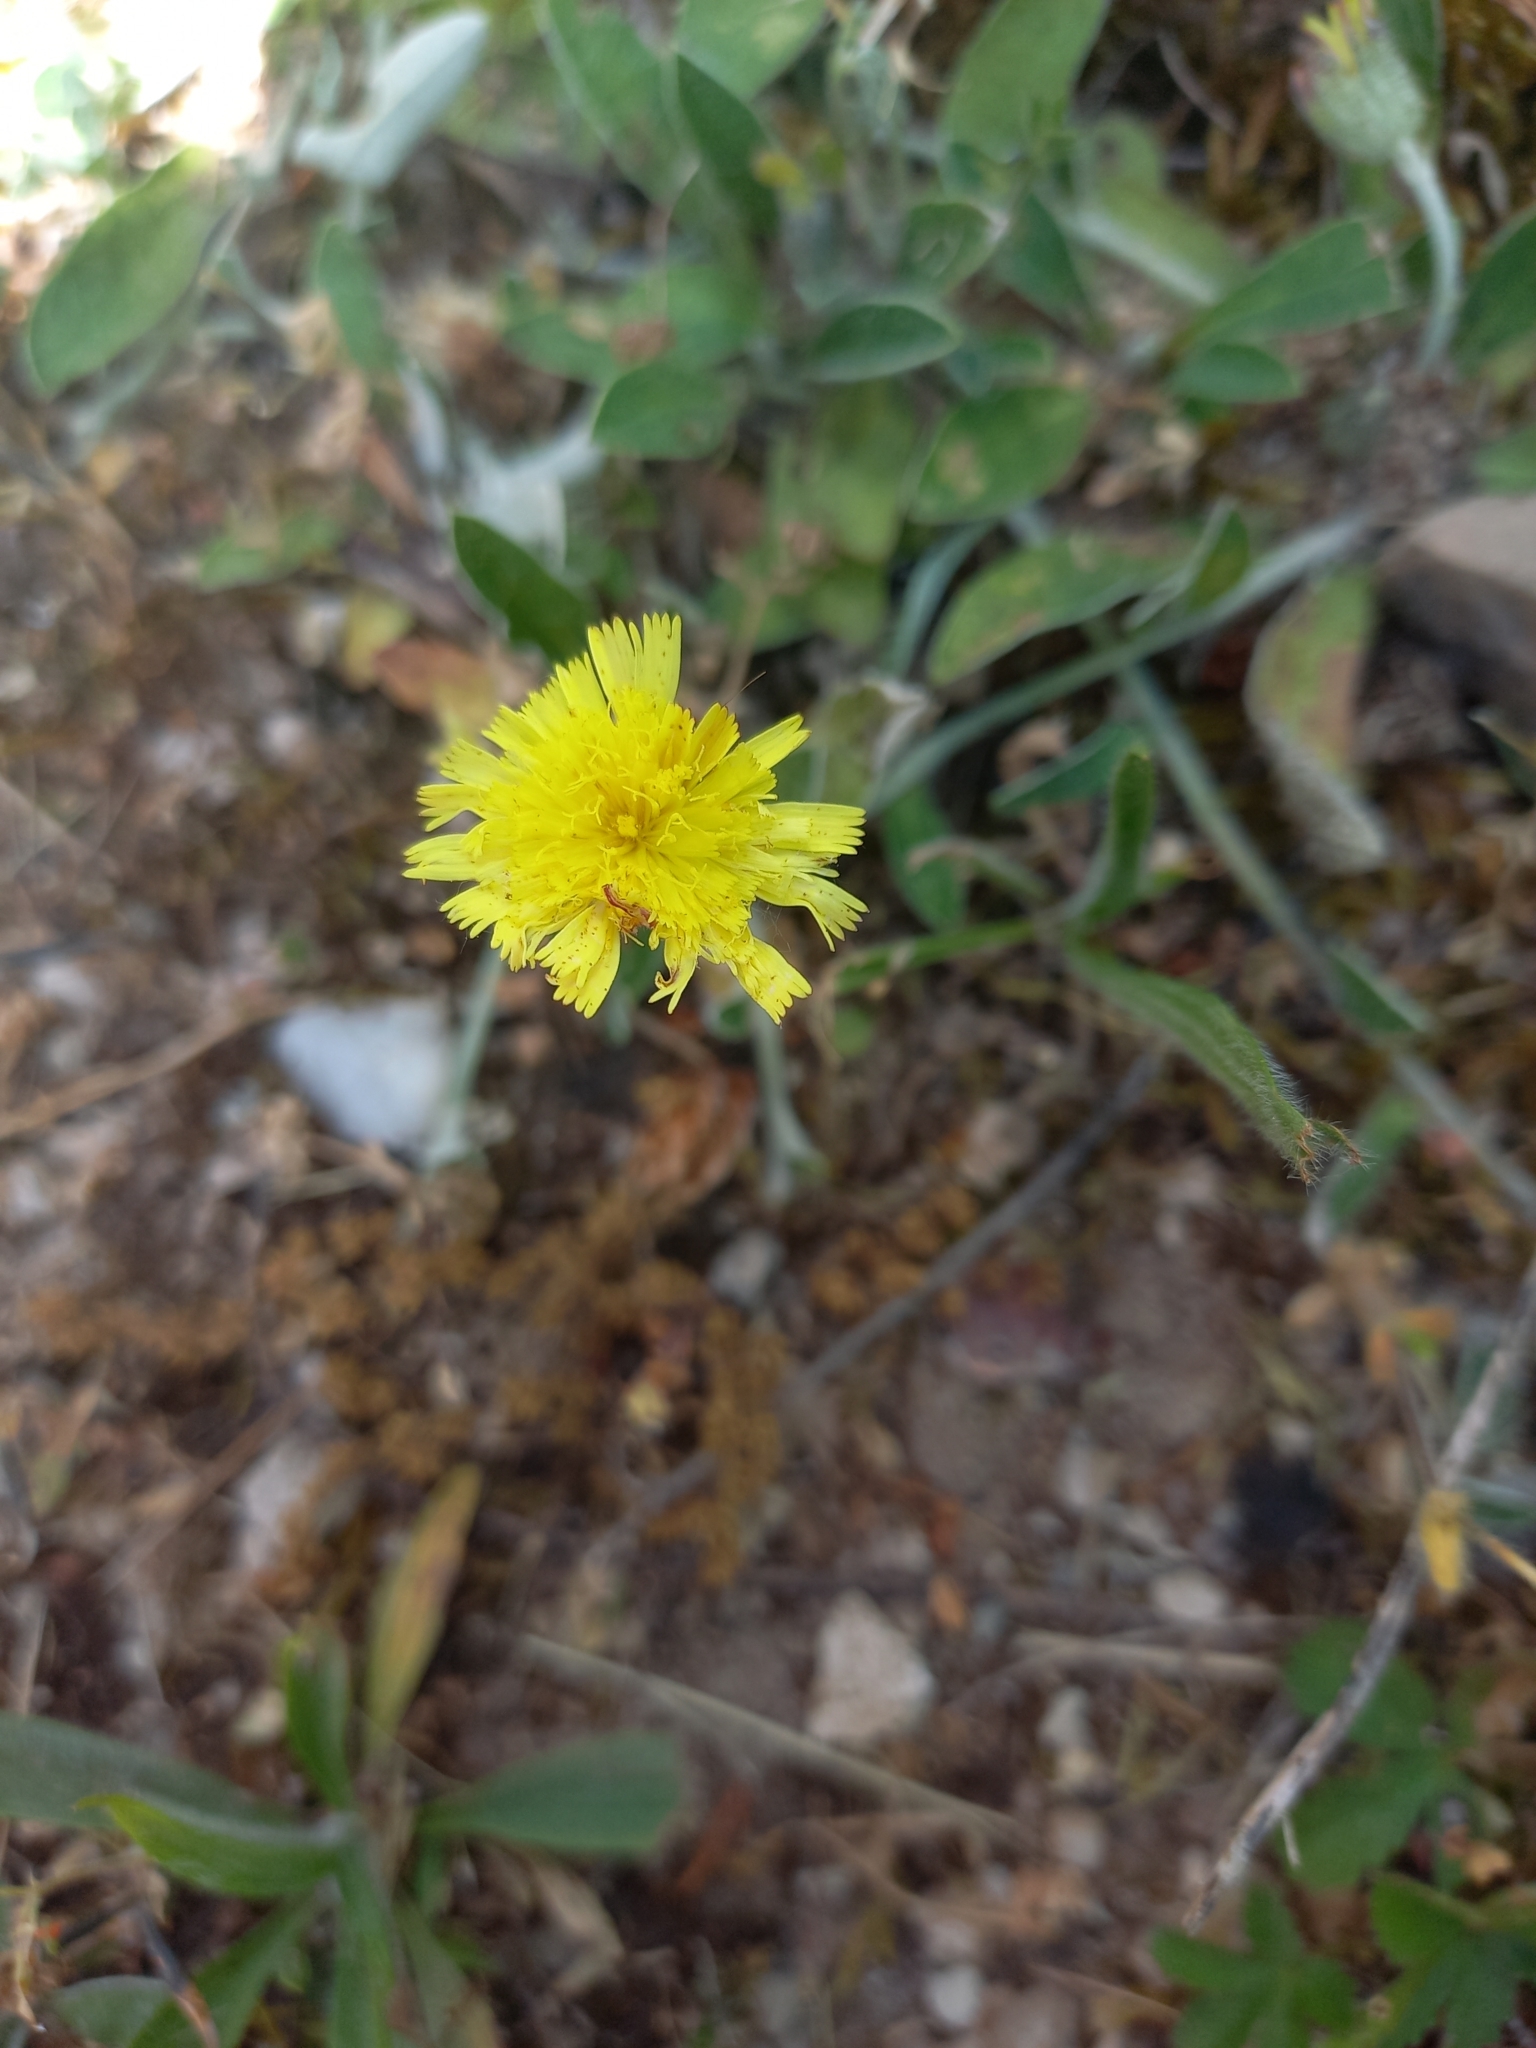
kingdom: Plantae
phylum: Tracheophyta
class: Magnoliopsida
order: Asterales
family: Asteraceae
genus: Pilosella
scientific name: Pilosella officinarum
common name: Mouse-ear hawkweed
